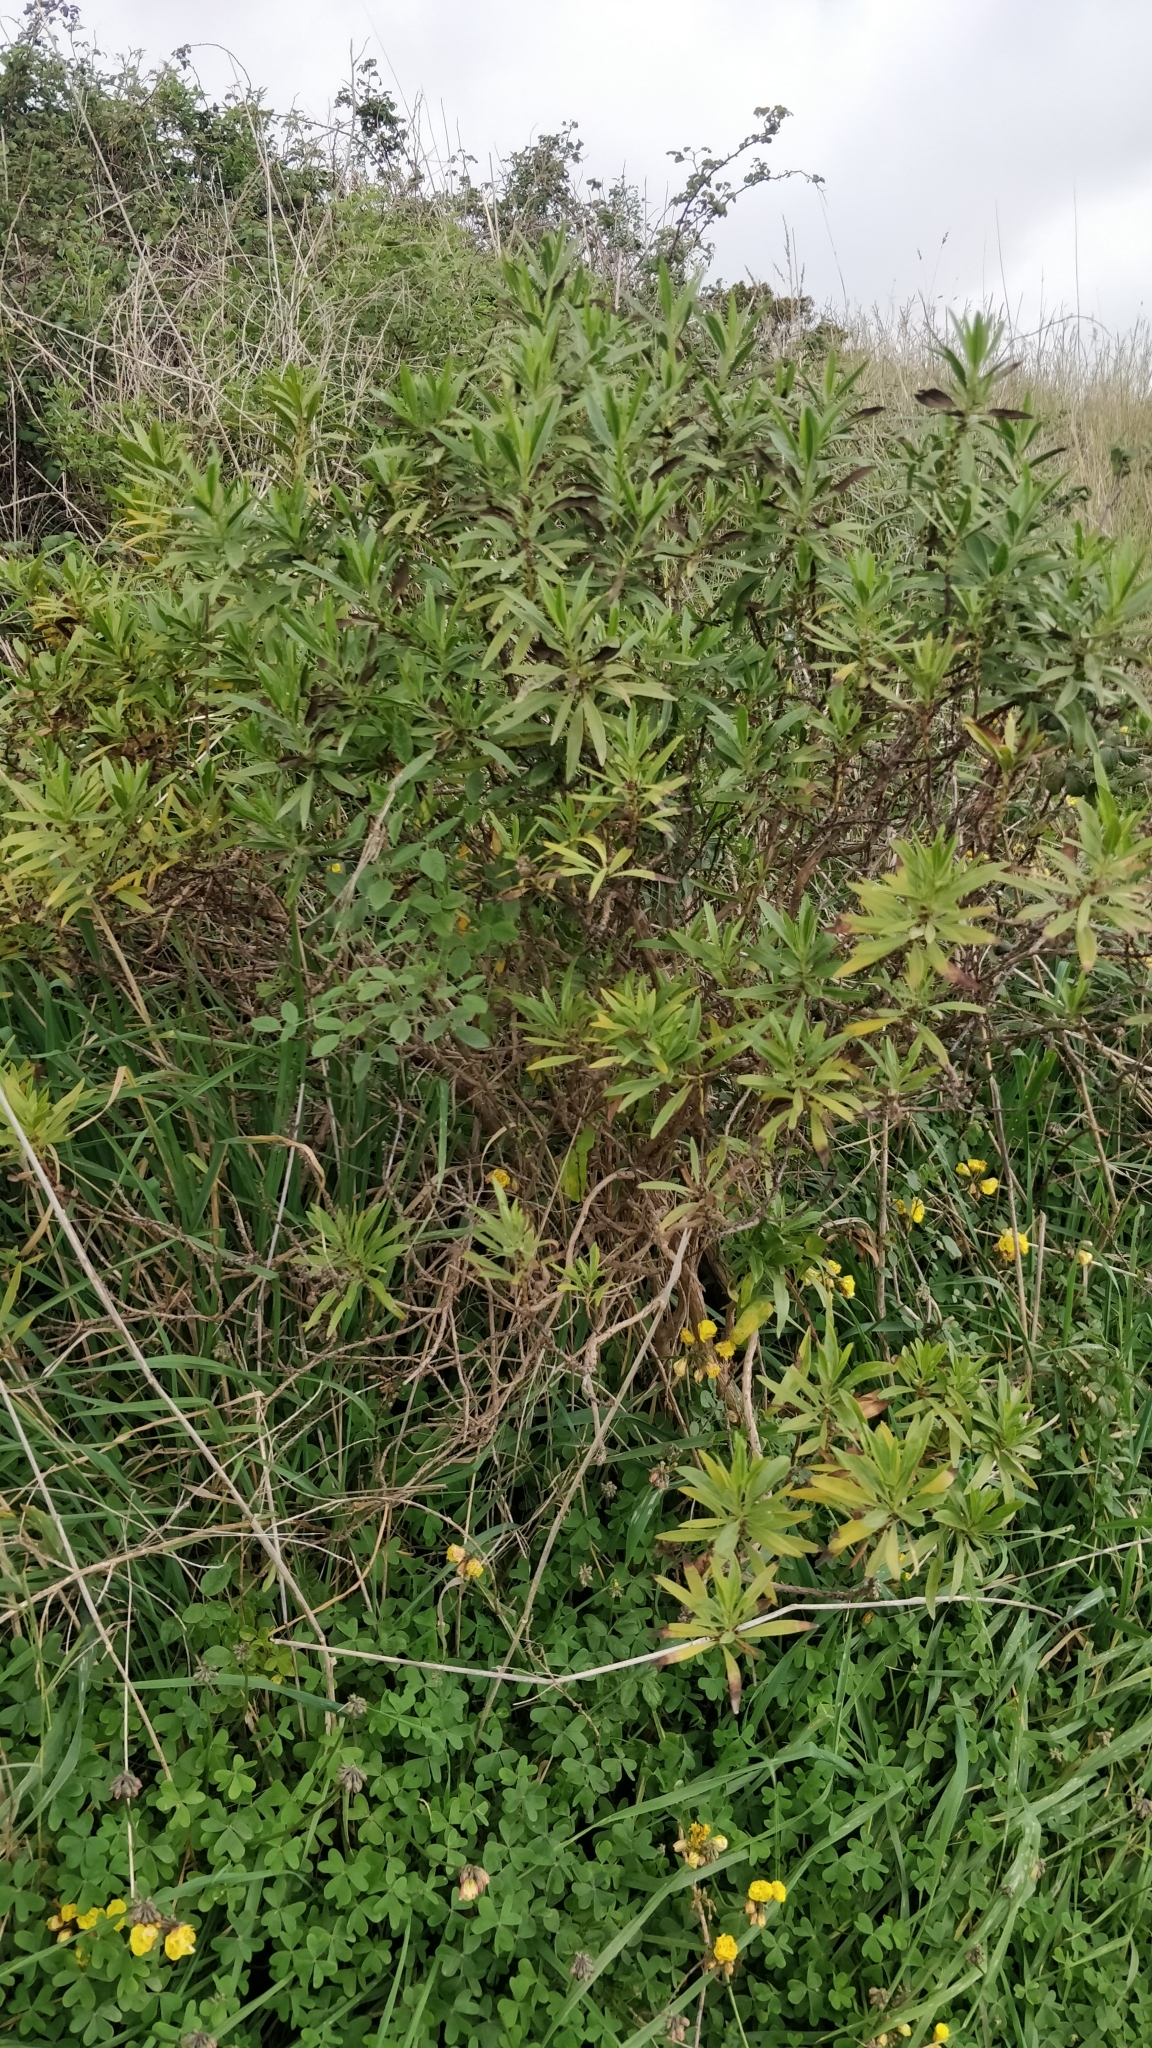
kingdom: Plantae
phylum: Tracheophyta
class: Magnoliopsida
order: Lamiales
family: Plantaginaceae
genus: Globularia
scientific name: Globularia salicina
